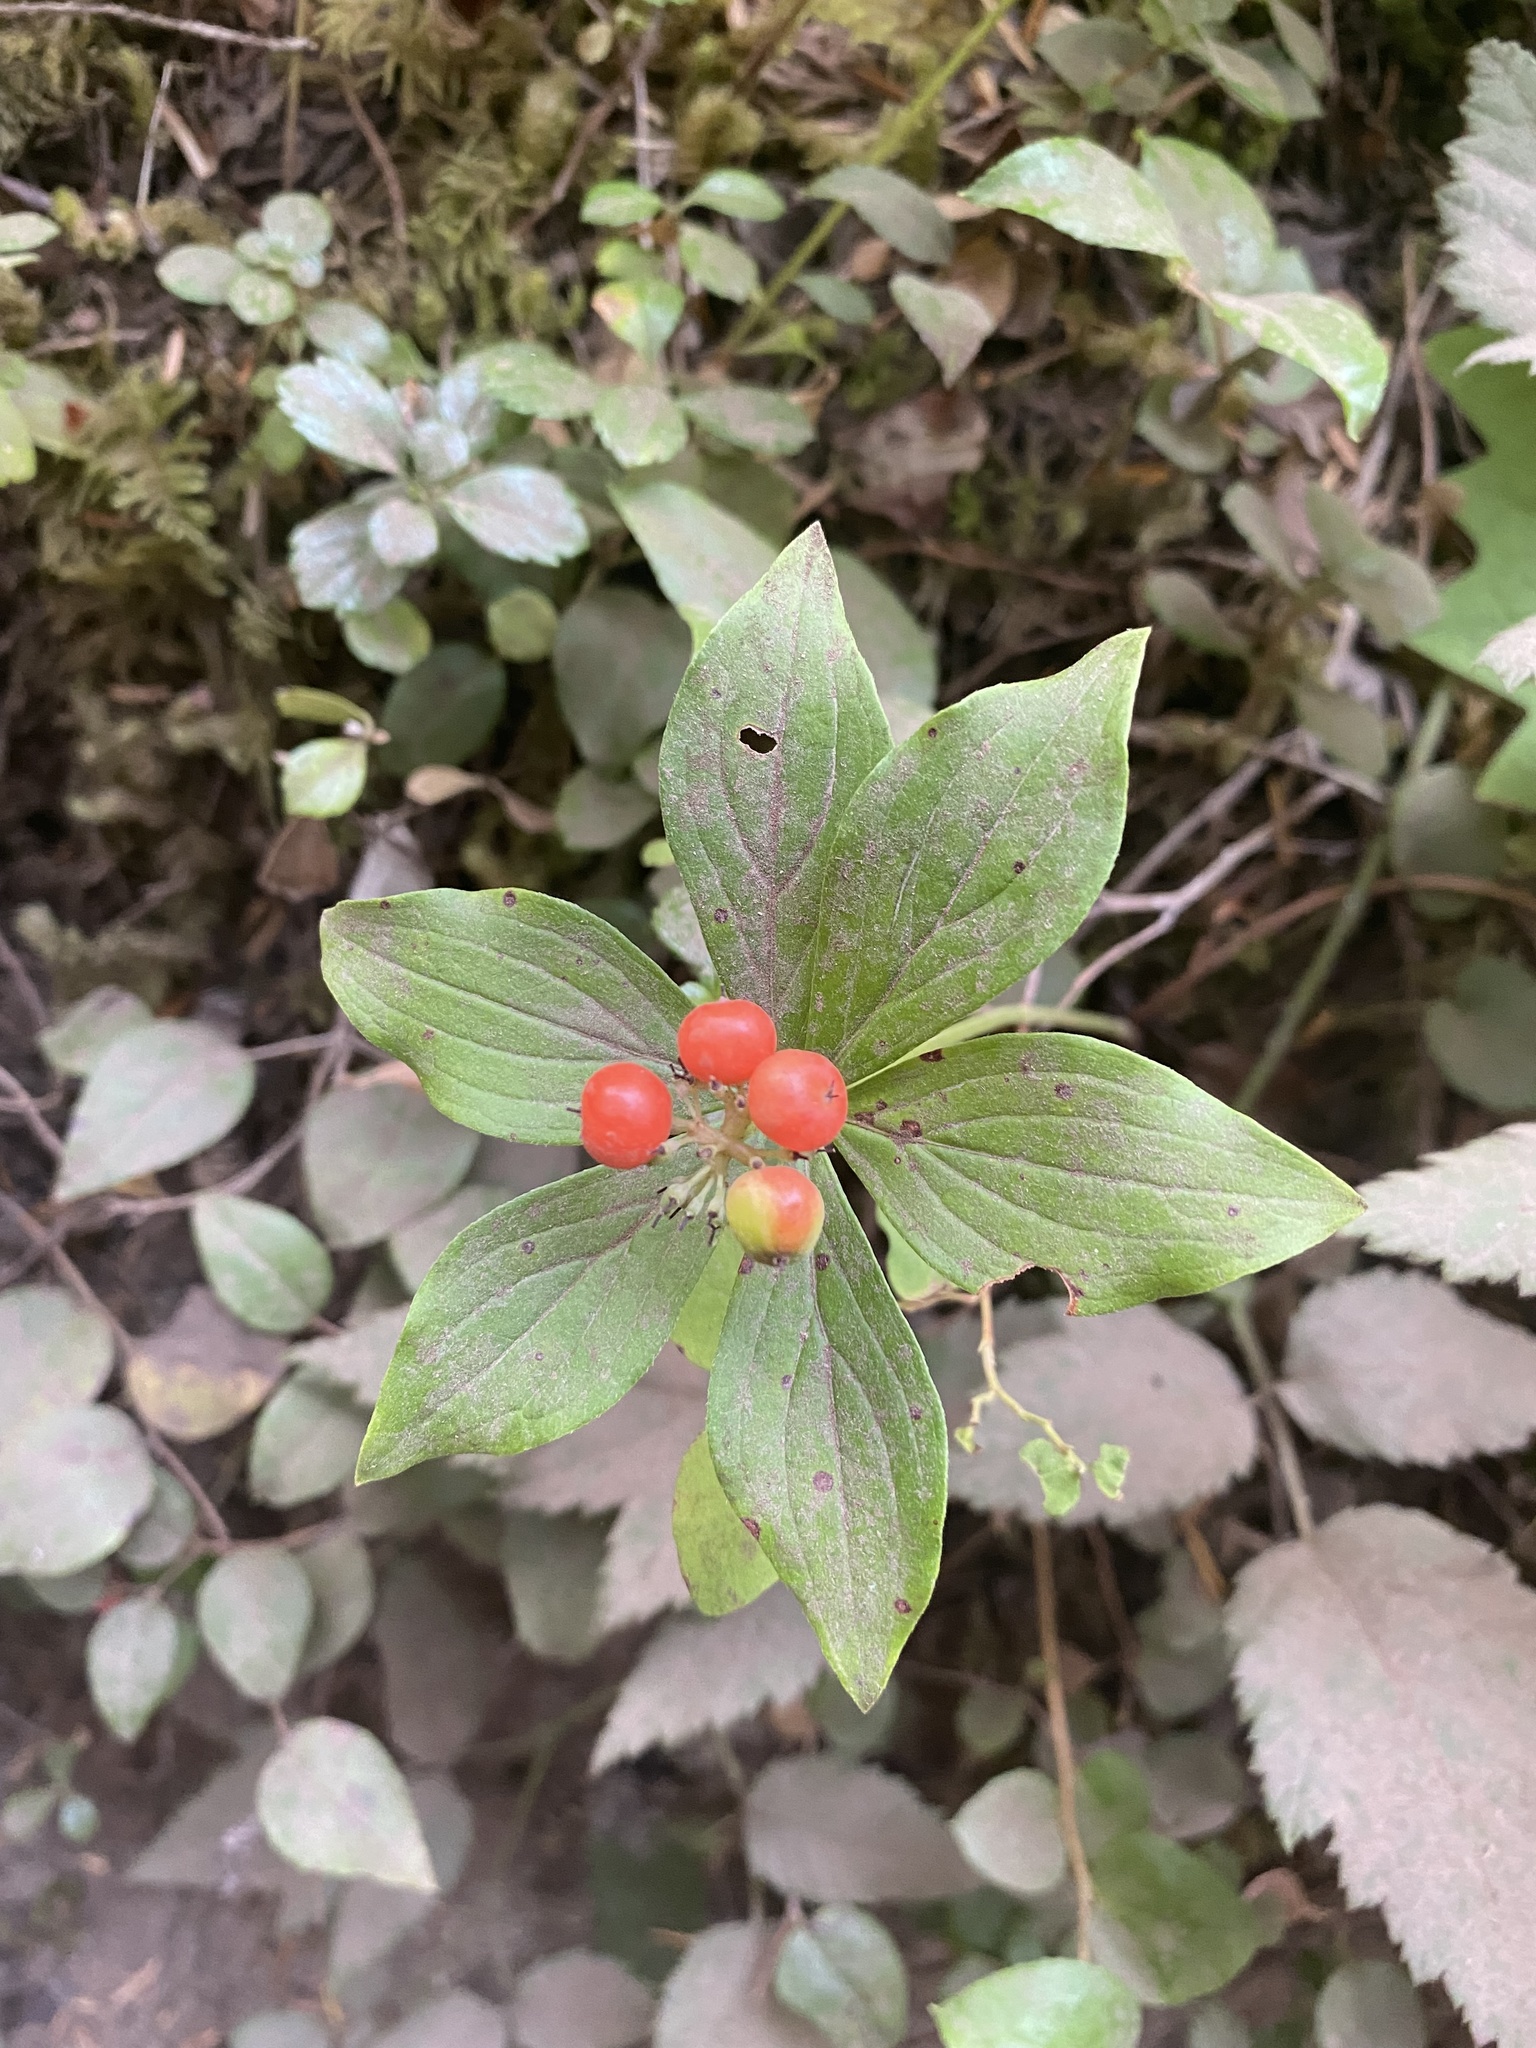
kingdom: Plantae
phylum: Tracheophyta
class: Magnoliopsida
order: Cornales
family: Cornaceae
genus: Cornus
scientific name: Cornus unalaschkensis
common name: Alaska bunchberry
